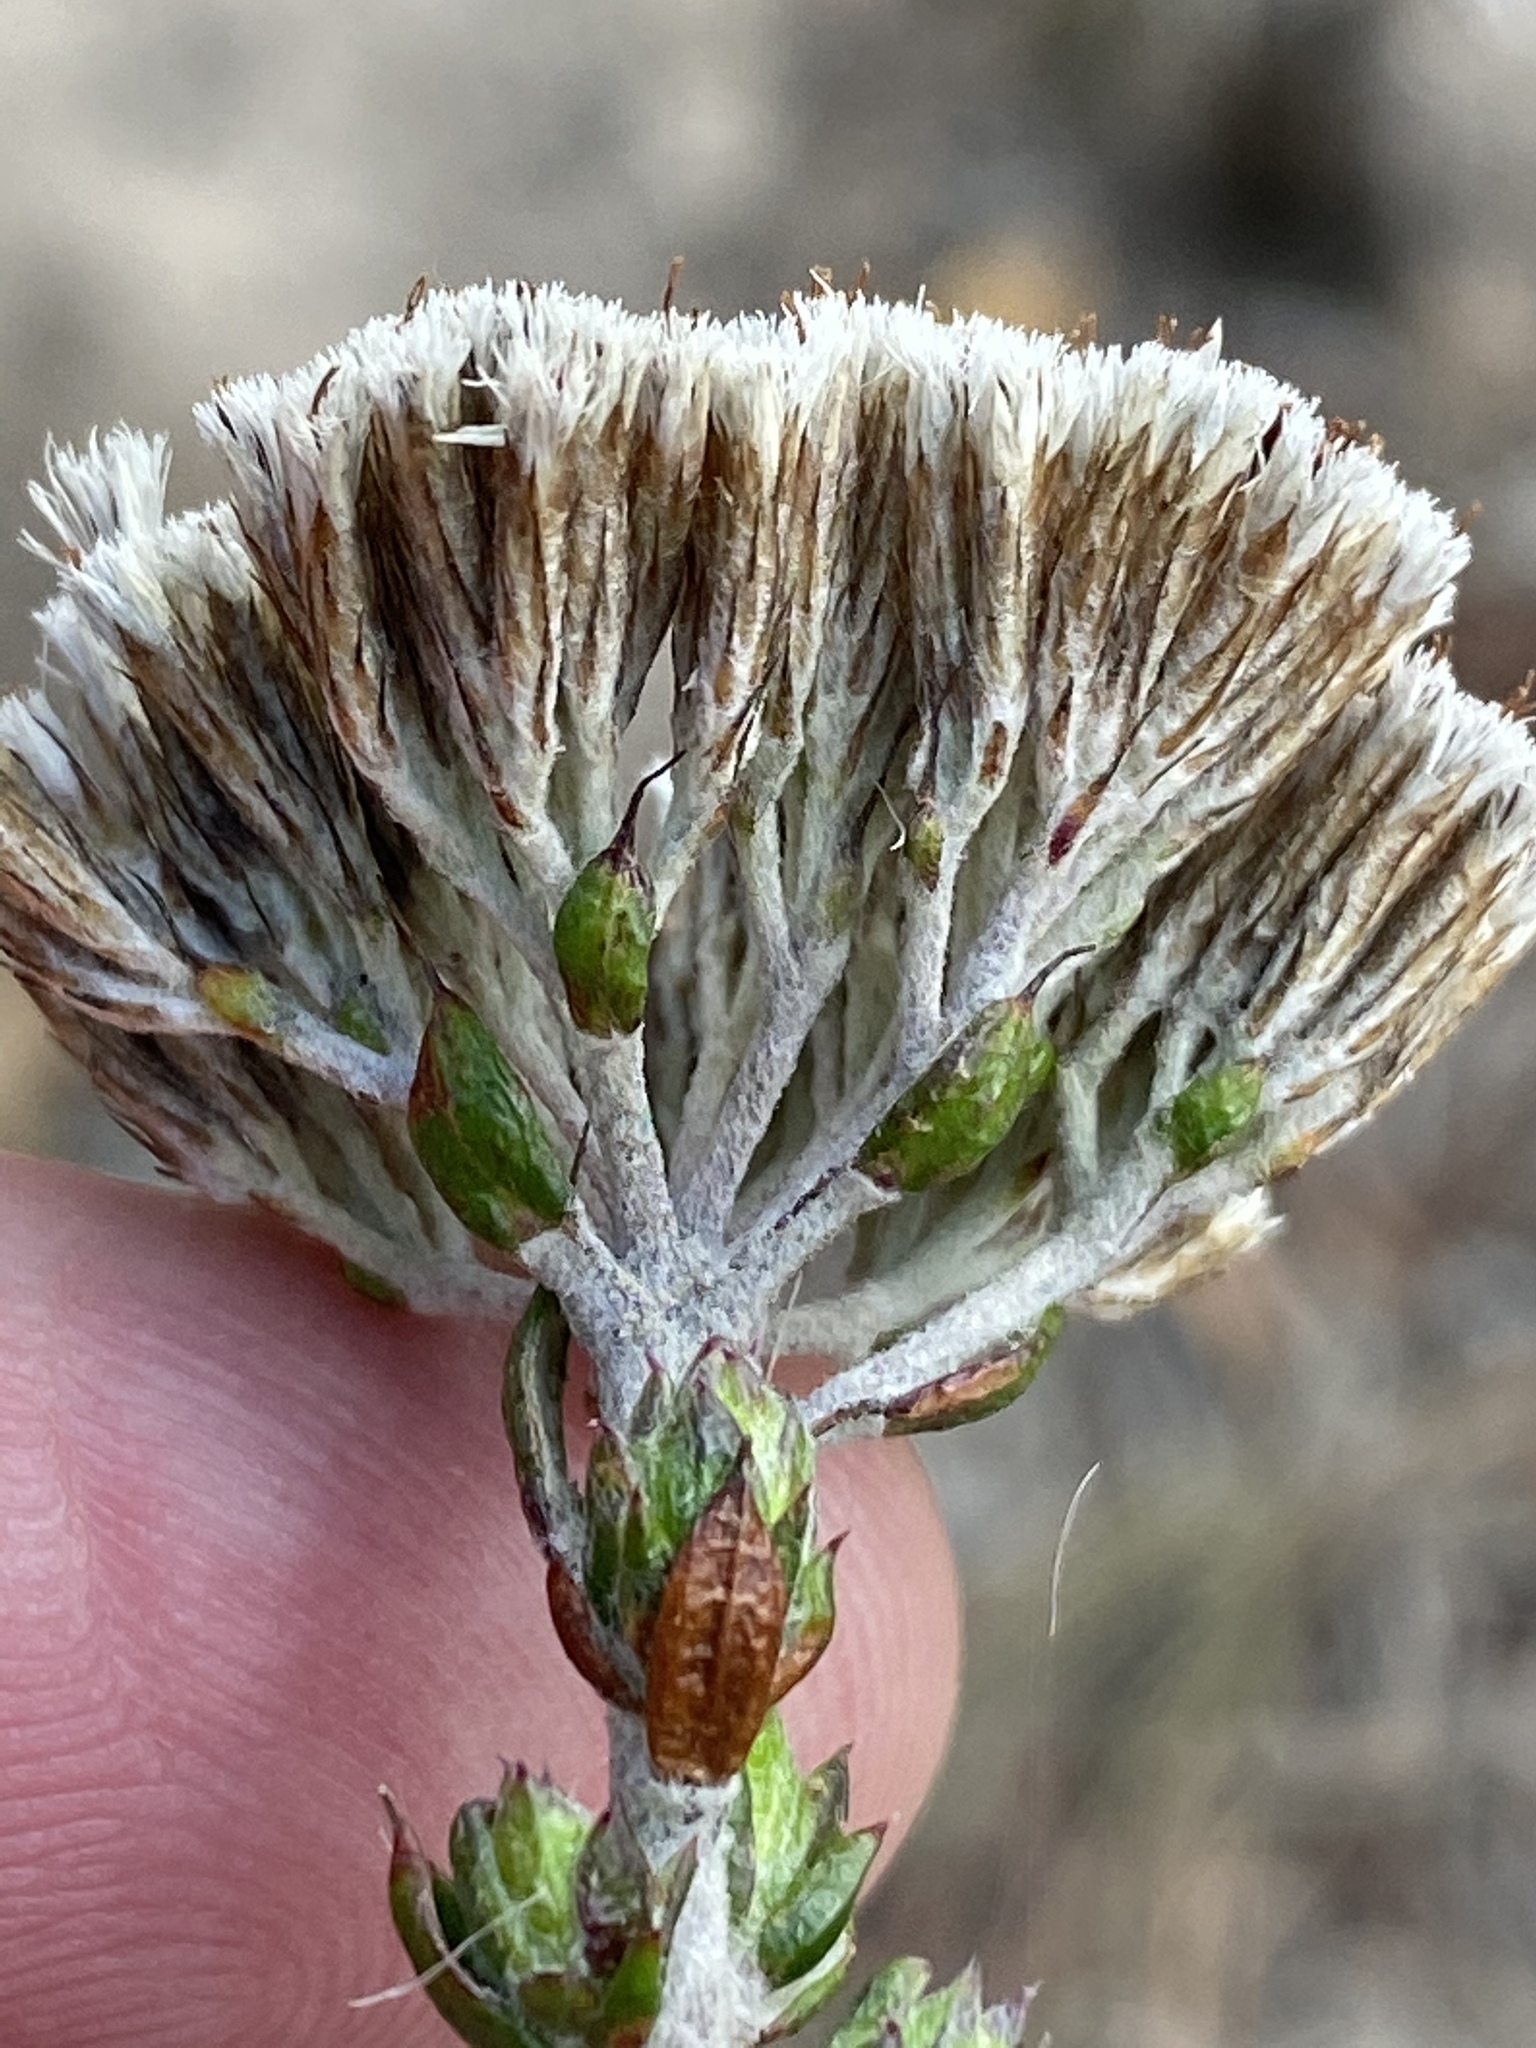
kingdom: Plantae
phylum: Tracheophyta
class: Magnoliopsida
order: Asterales
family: Asteraceae
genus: Metalasia
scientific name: Metalasia pungens
